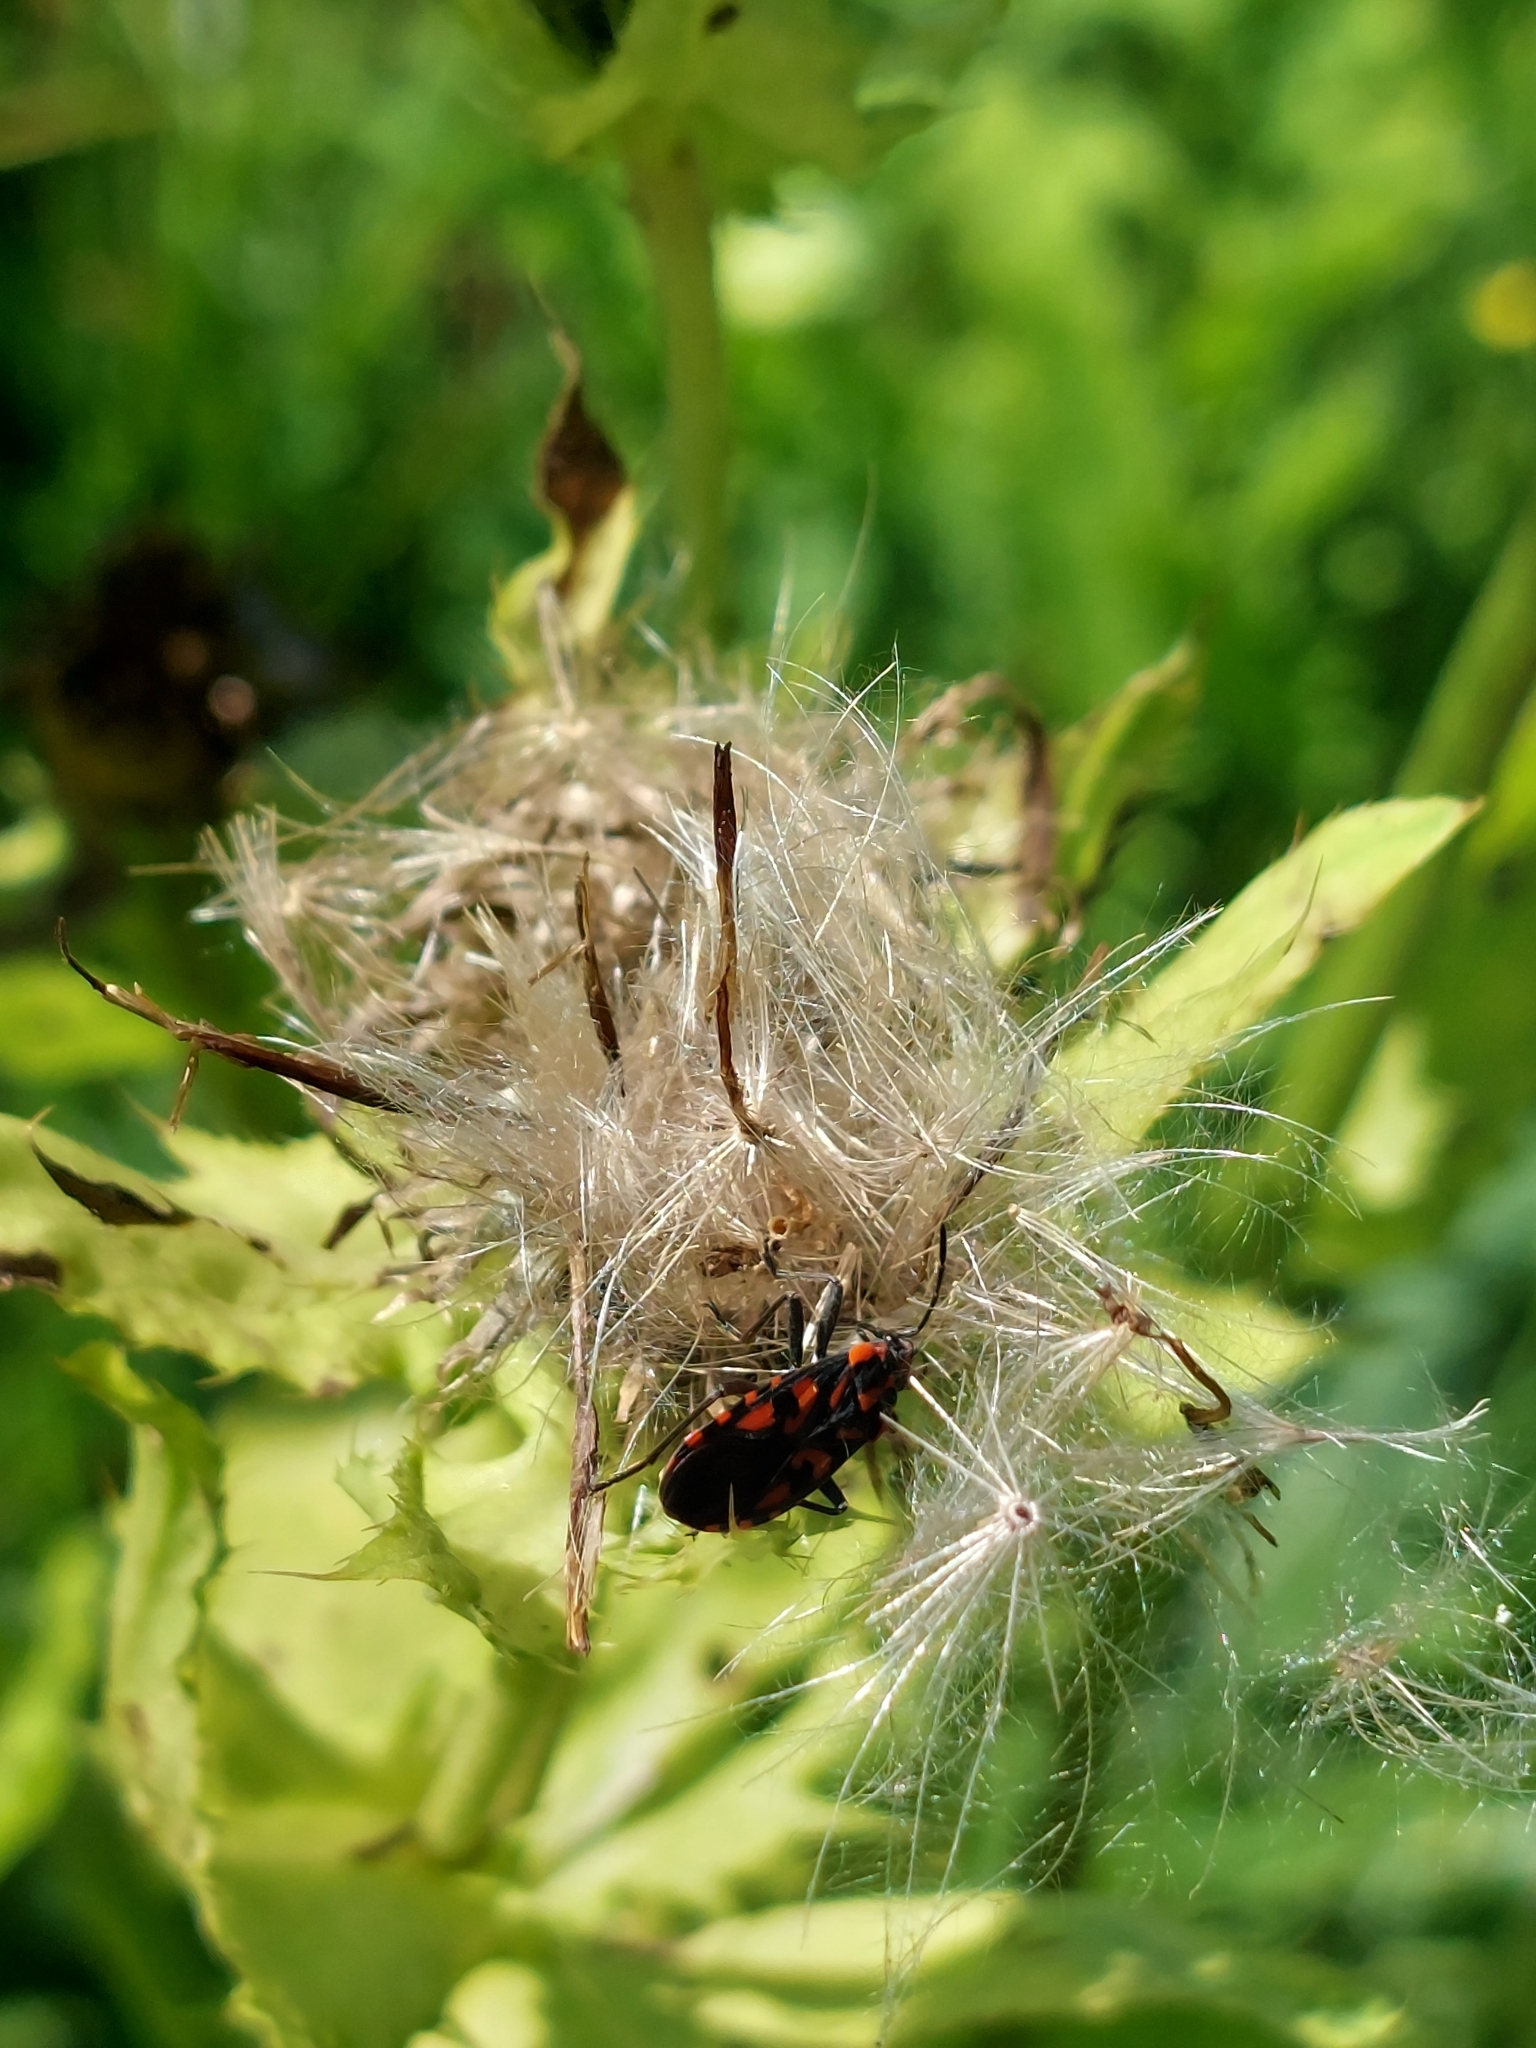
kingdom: Animalia
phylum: Arthropoda
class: Insecta
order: Hemiptera
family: Lygaeidae
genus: Spilostethus
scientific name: Spilostethus saxatilis
